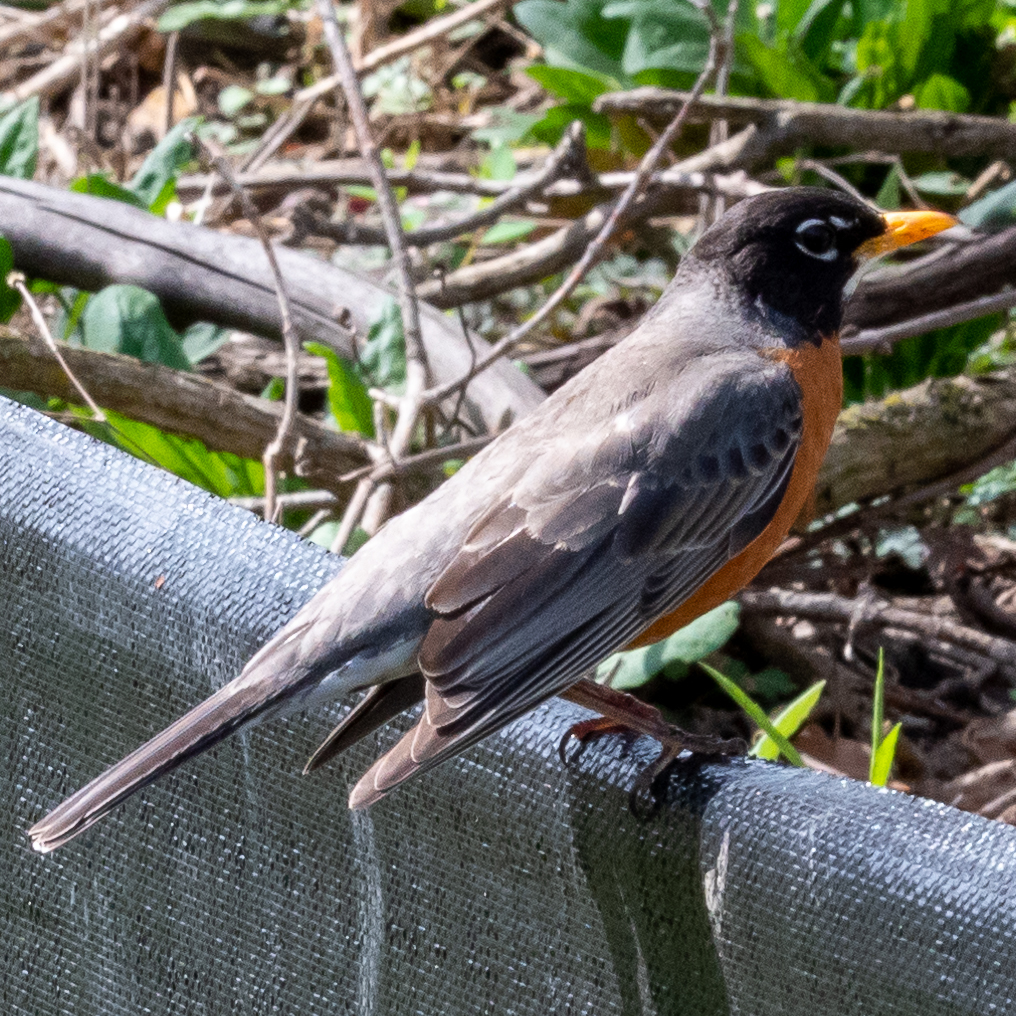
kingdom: Animalia
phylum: Chordata
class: Aves
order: Passeriformes
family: Turdidae
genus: Turdus
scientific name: Turdus migratorius
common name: American robin
